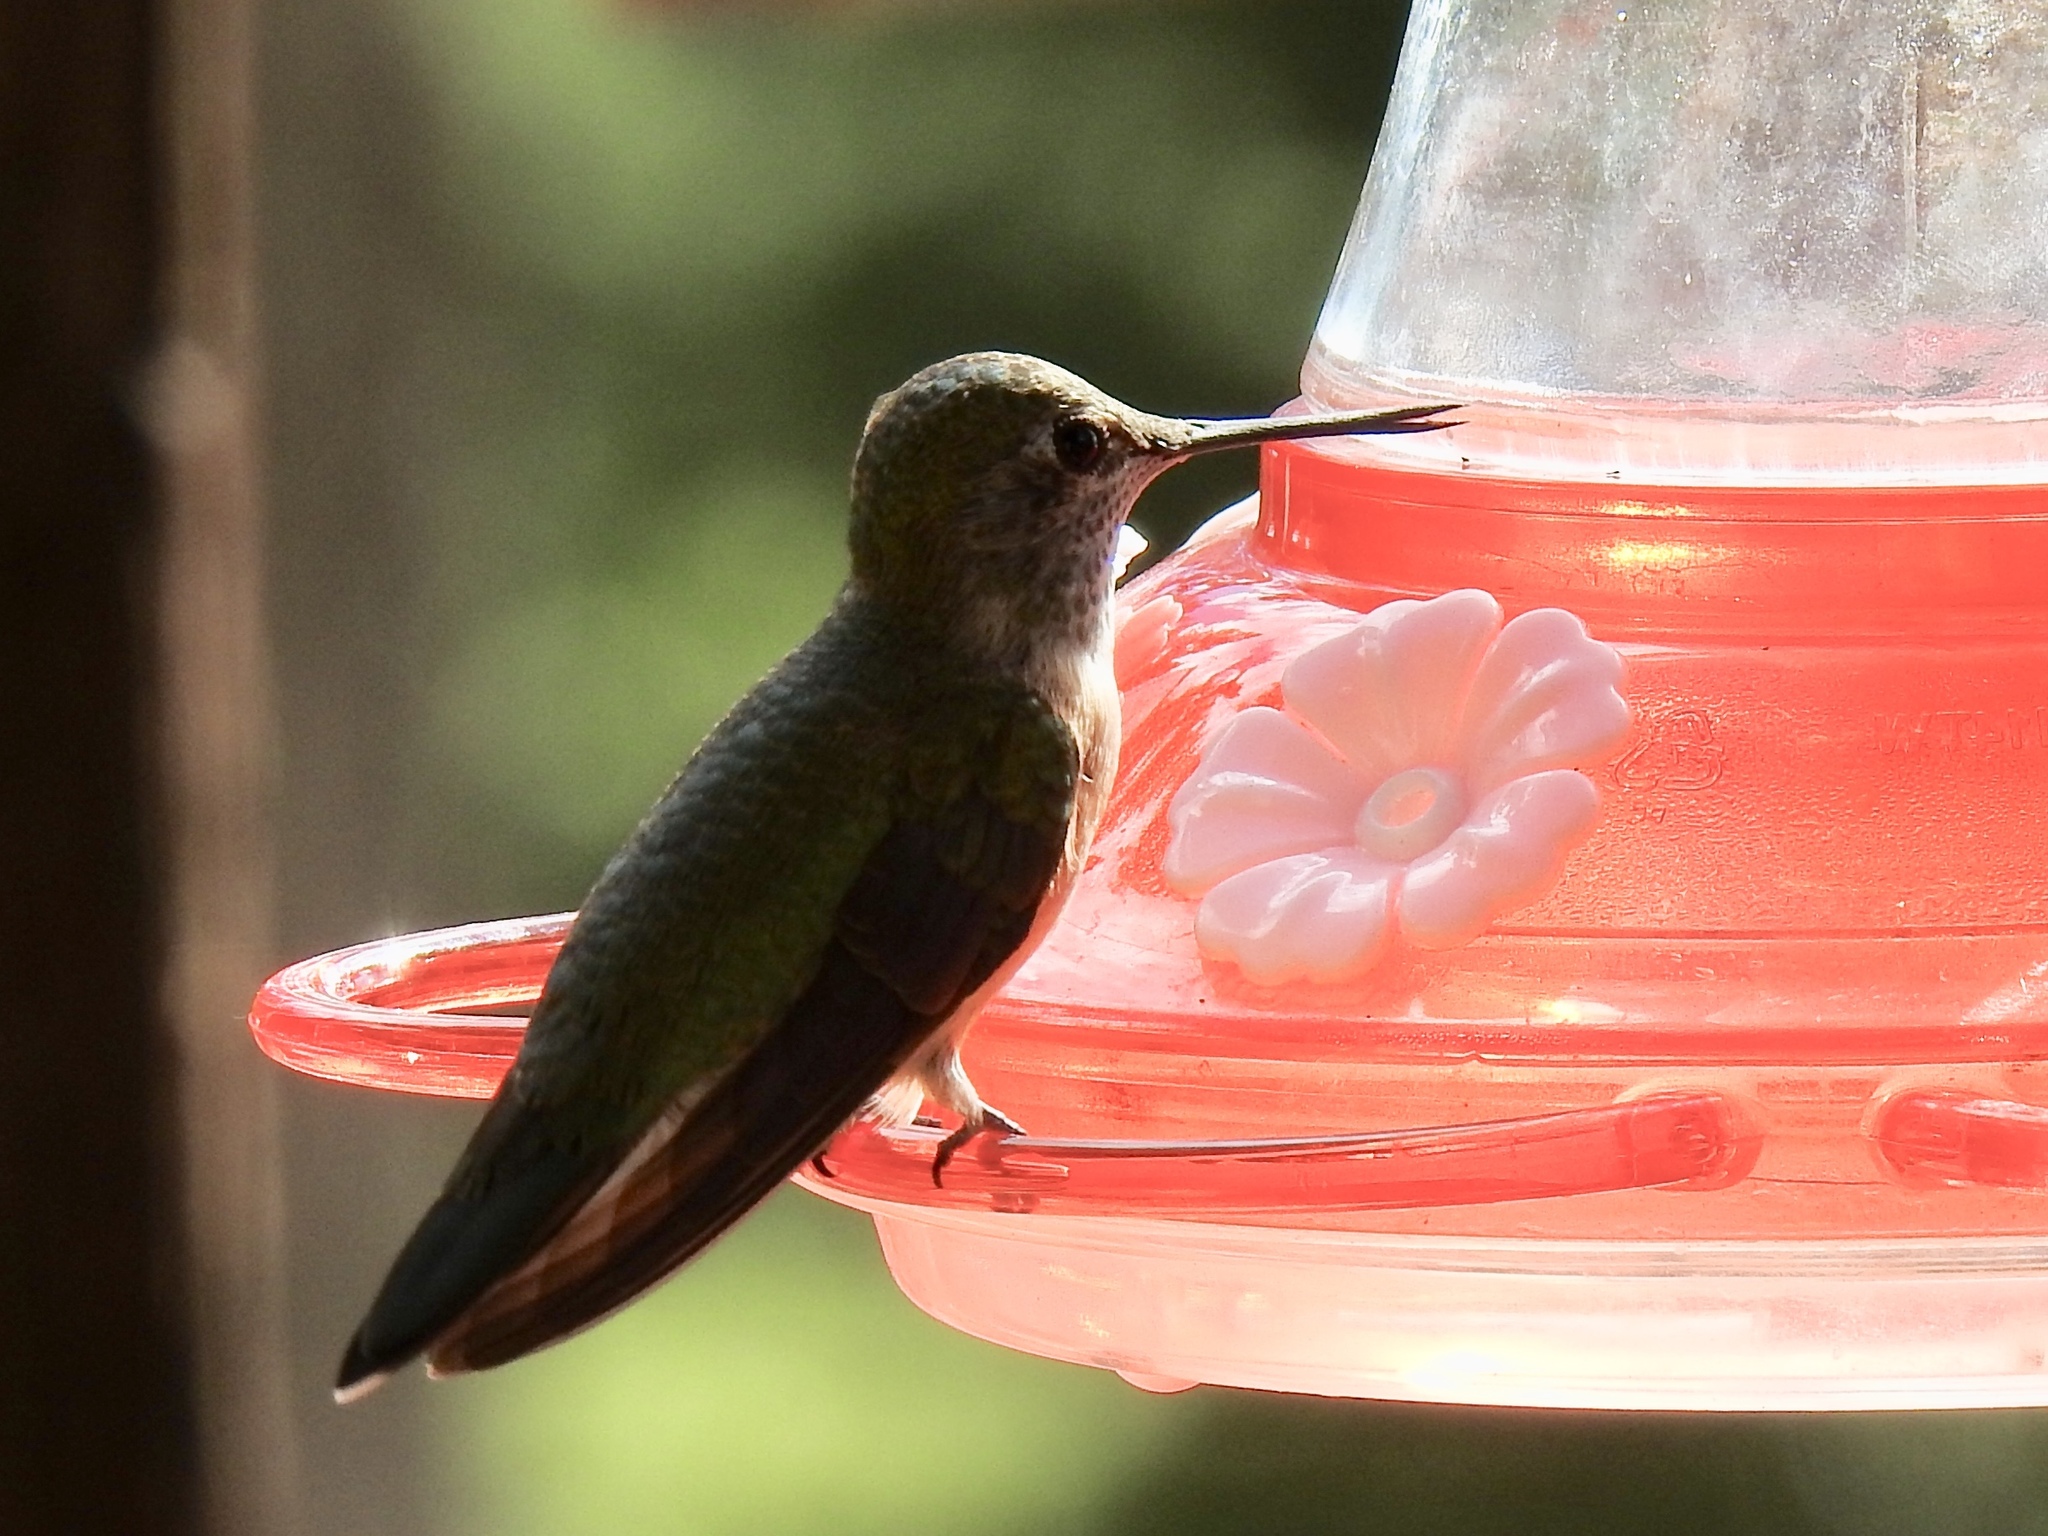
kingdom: Animalia
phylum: Chordata
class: Aves
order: Apodiformes
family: Trochilidae
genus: Selasphorus
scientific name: Selasphorus platycercus
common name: Broad-tailed hummingbird
